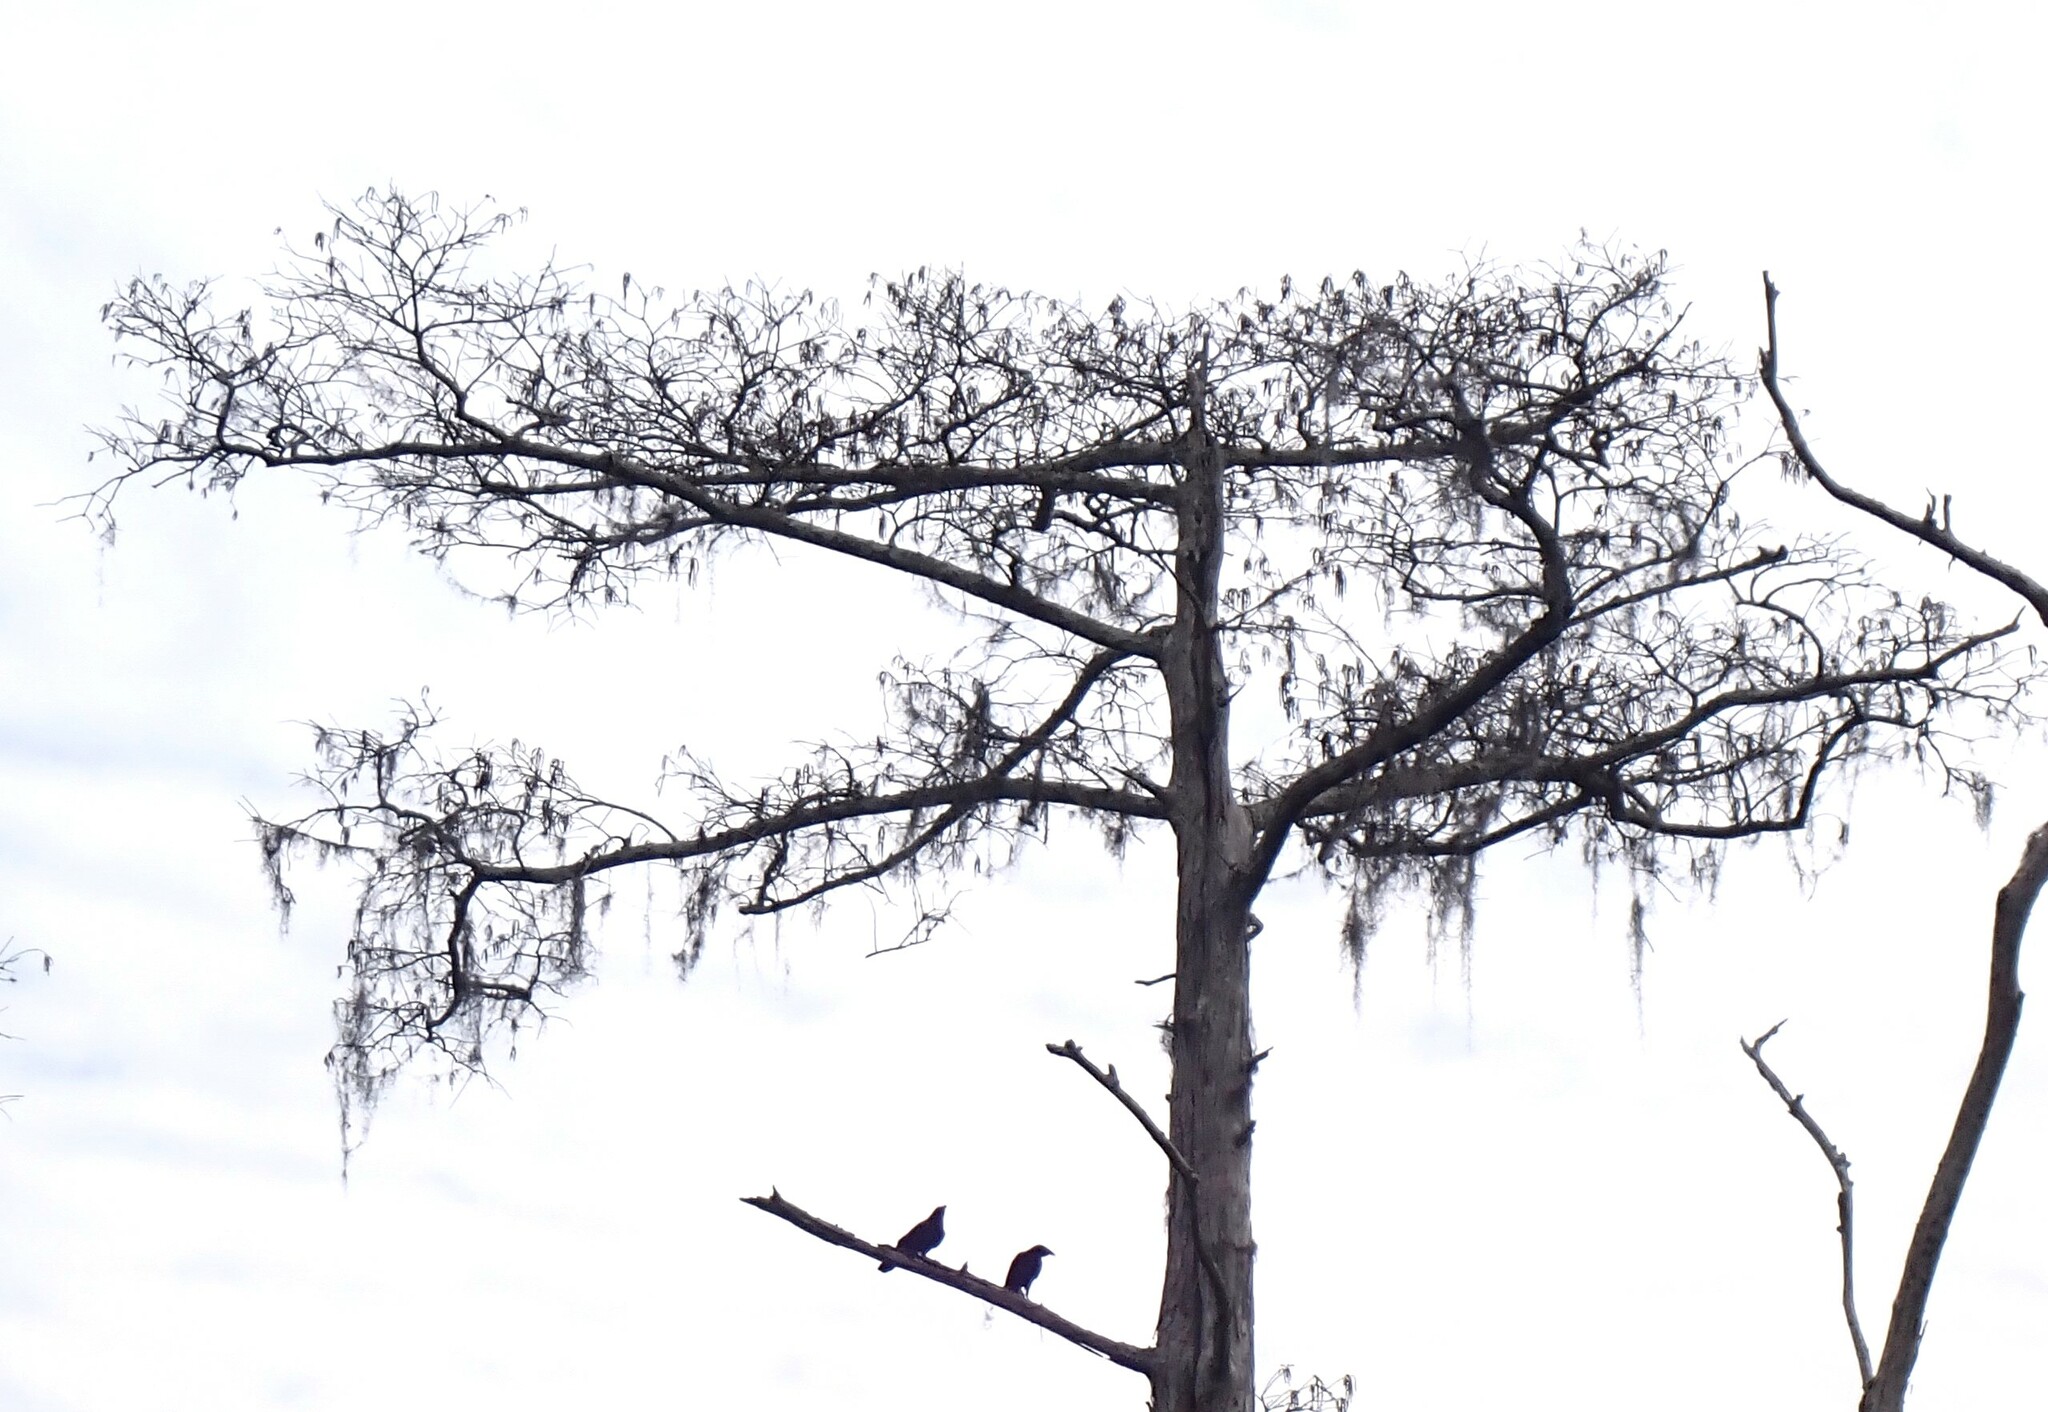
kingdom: Animalia
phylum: Chordata
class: Aves
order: Passeriformes
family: Corvidae
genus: Corvus
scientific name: Corvus
